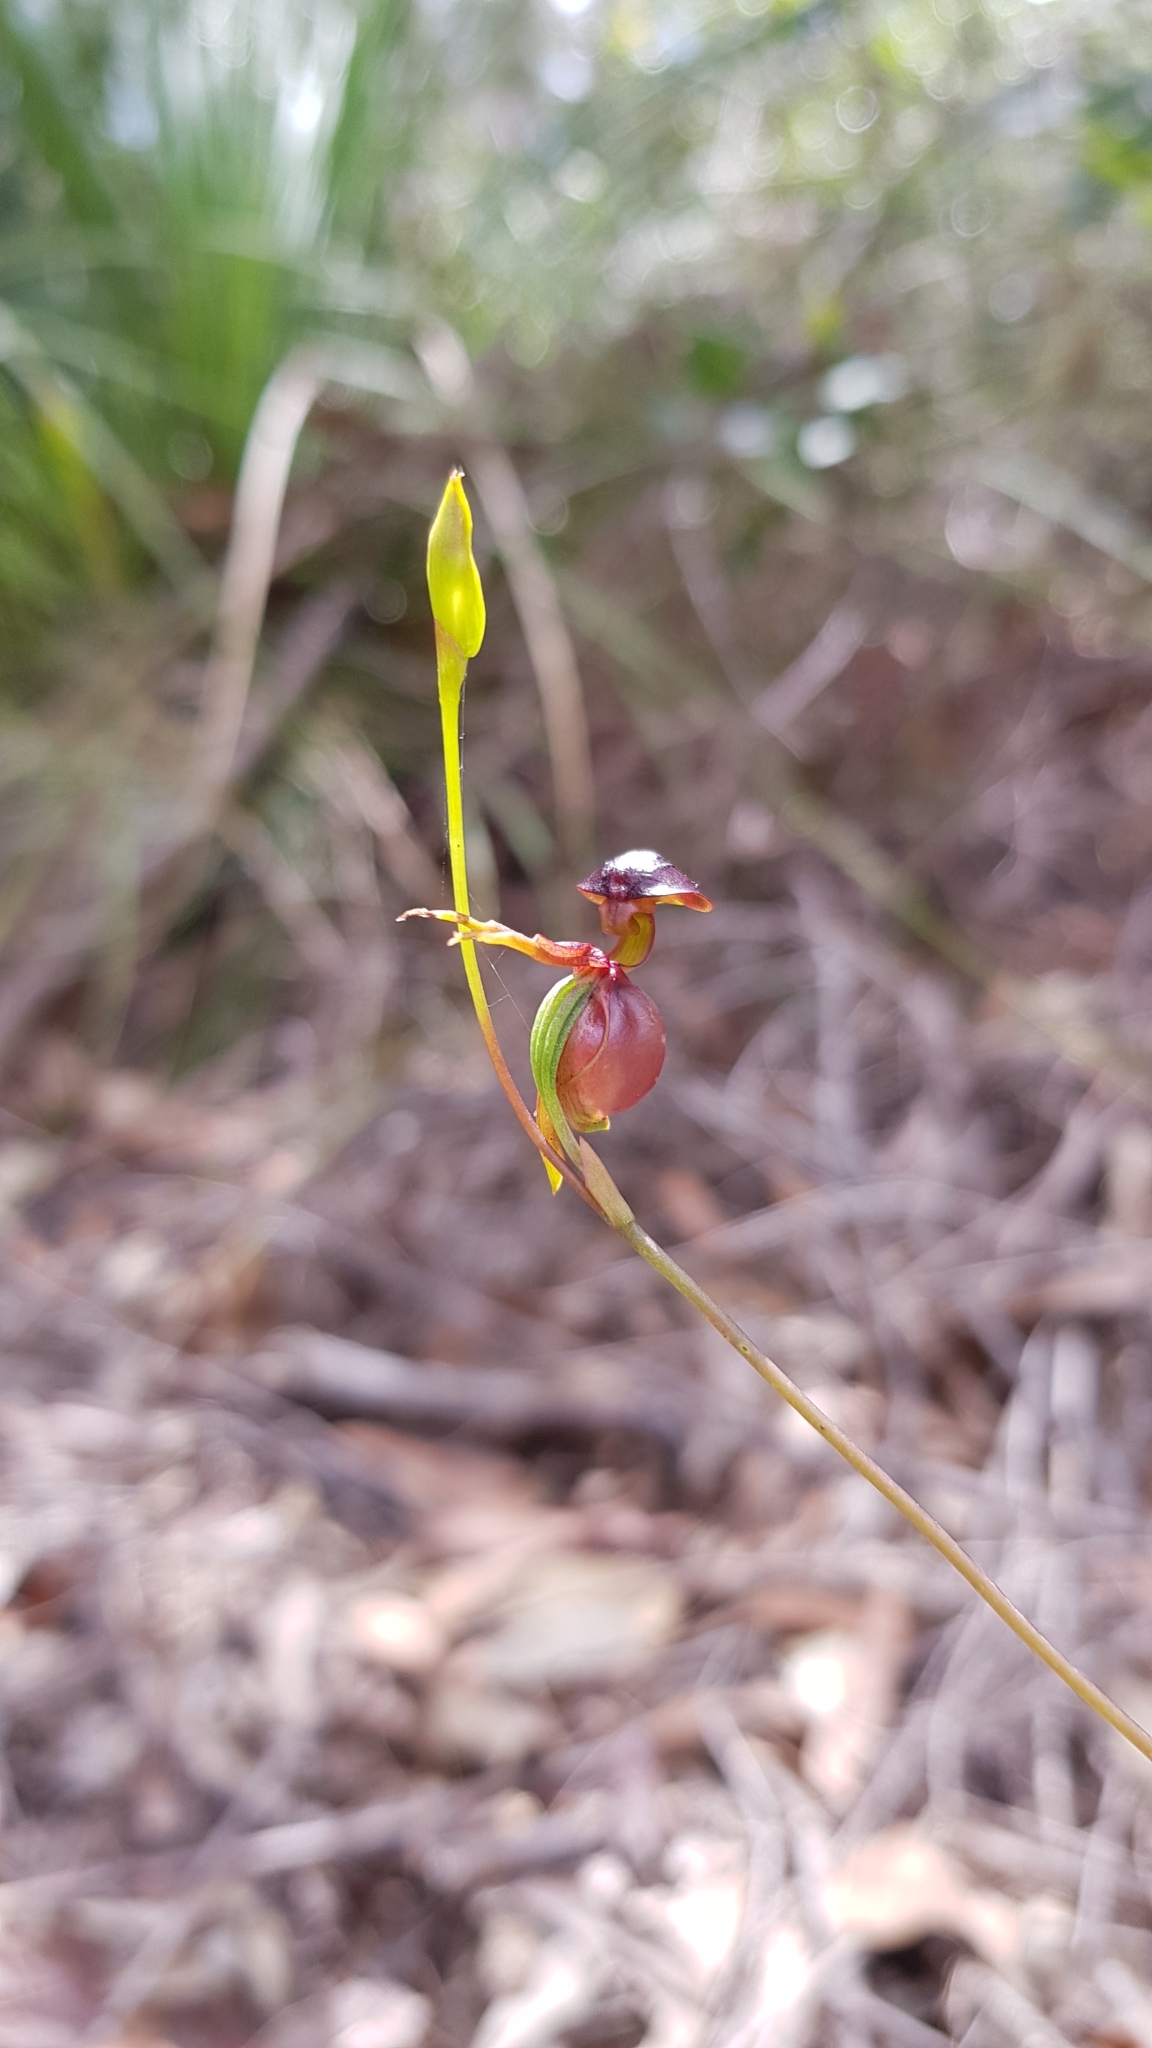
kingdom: Plantae
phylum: Tracheophyta
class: Liliopsida
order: Asparagales
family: Orchidaceae
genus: Caleana
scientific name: Caleana major
